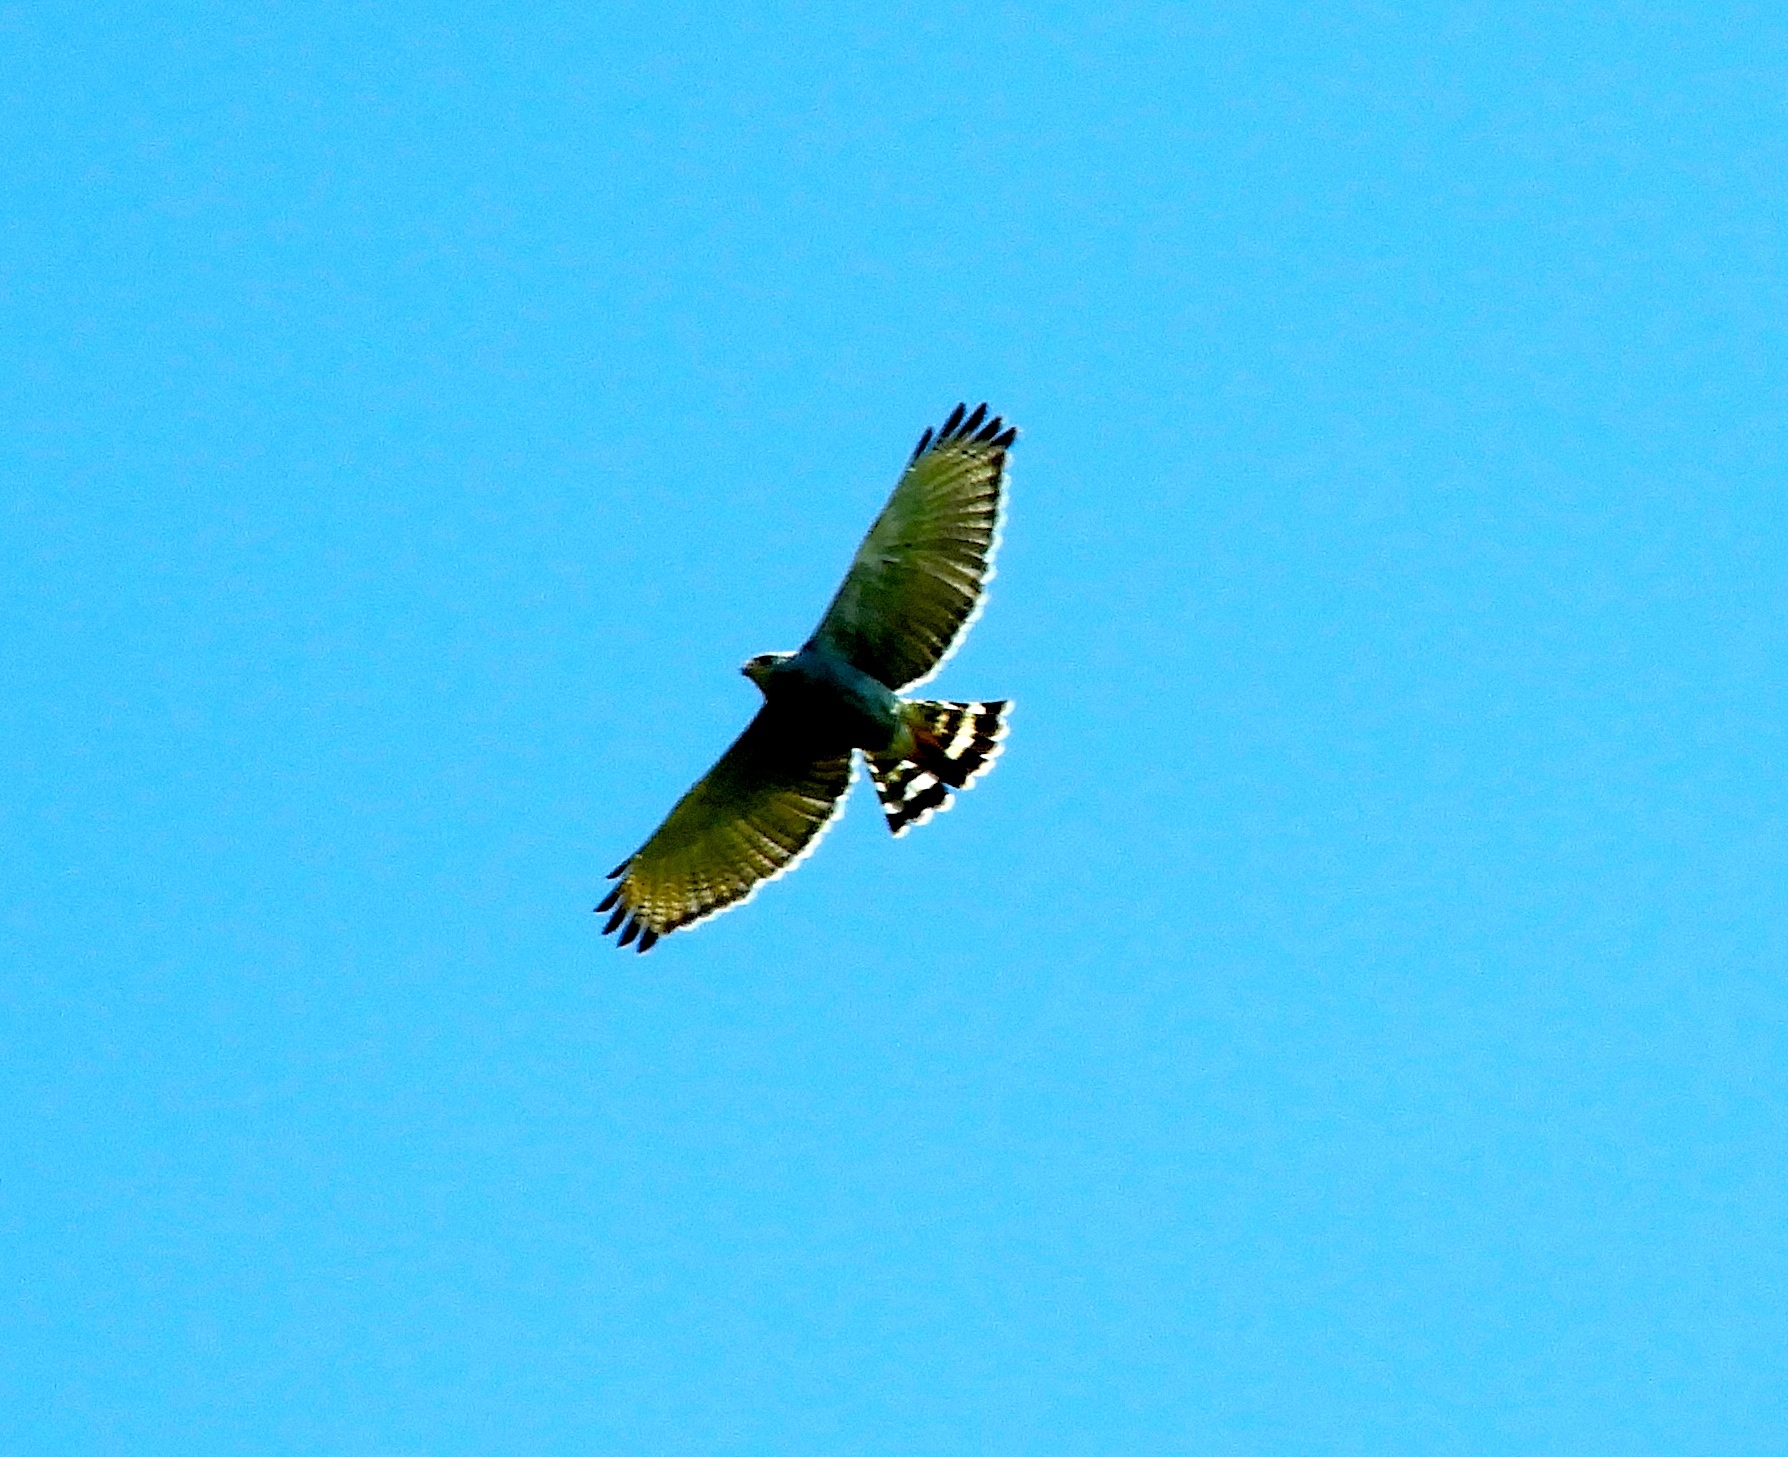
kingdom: Animalia
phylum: Chordata
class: Aves
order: Accipitriformes
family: Accipitridae
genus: Buteo
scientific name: Buteo nitidus
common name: Grey-lined hawk
